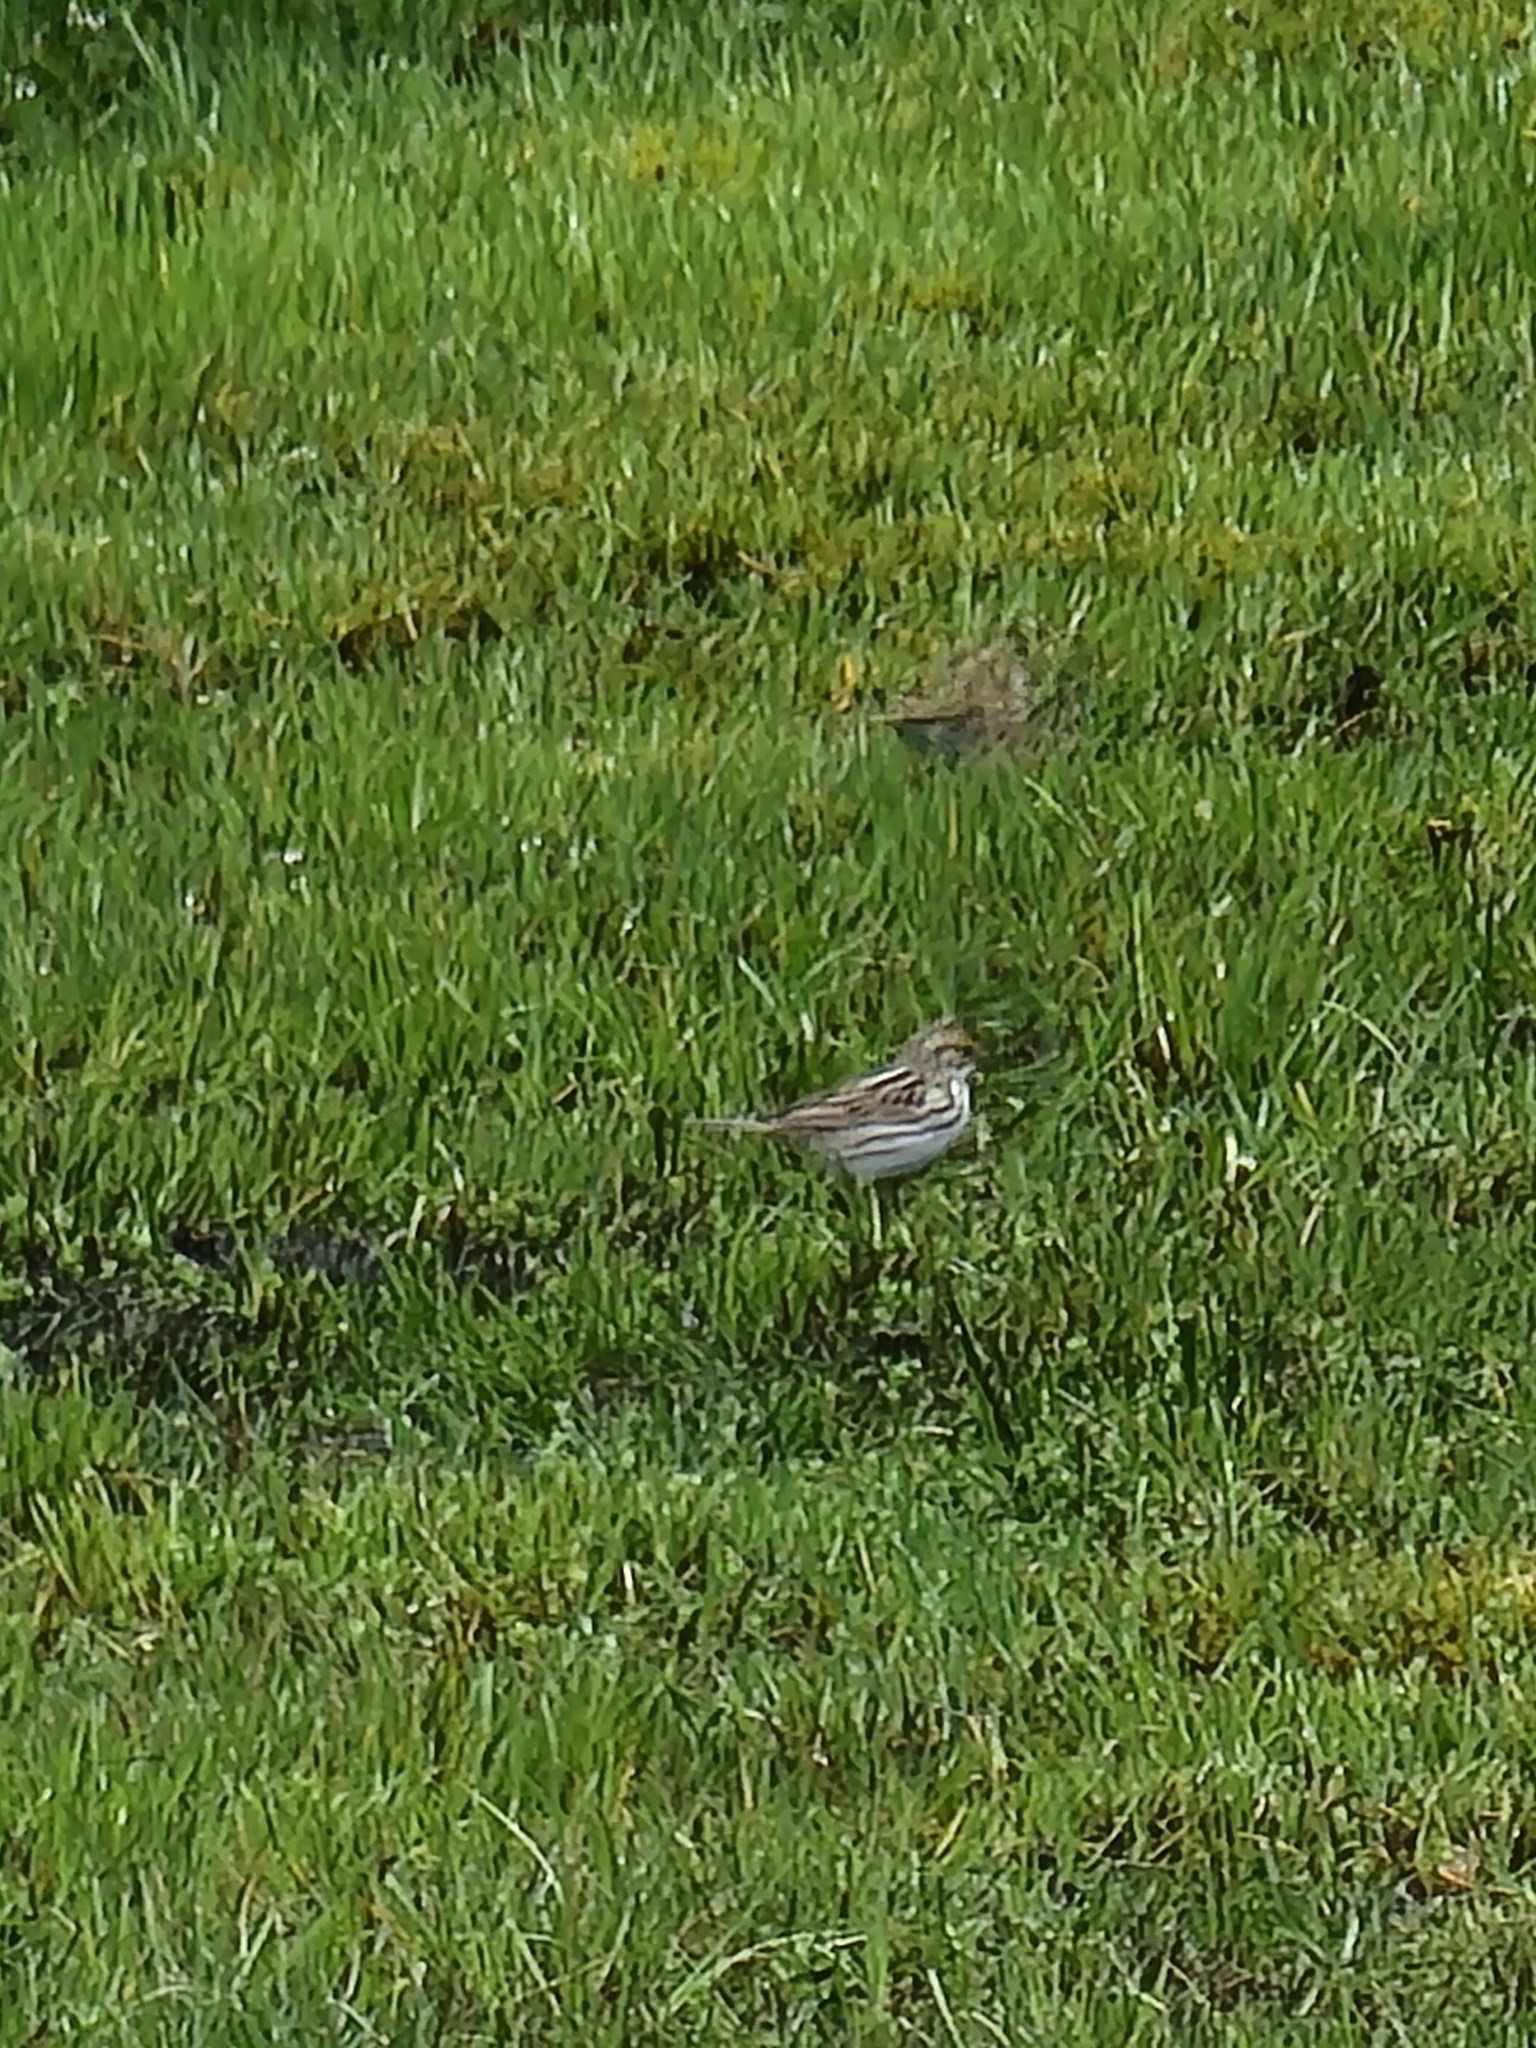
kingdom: Animalia
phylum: Chordata
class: Aves
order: Passeriformes
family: Passerellidae
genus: Passerculus
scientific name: Passerculus sandwichensis
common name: Savannah sparrow
